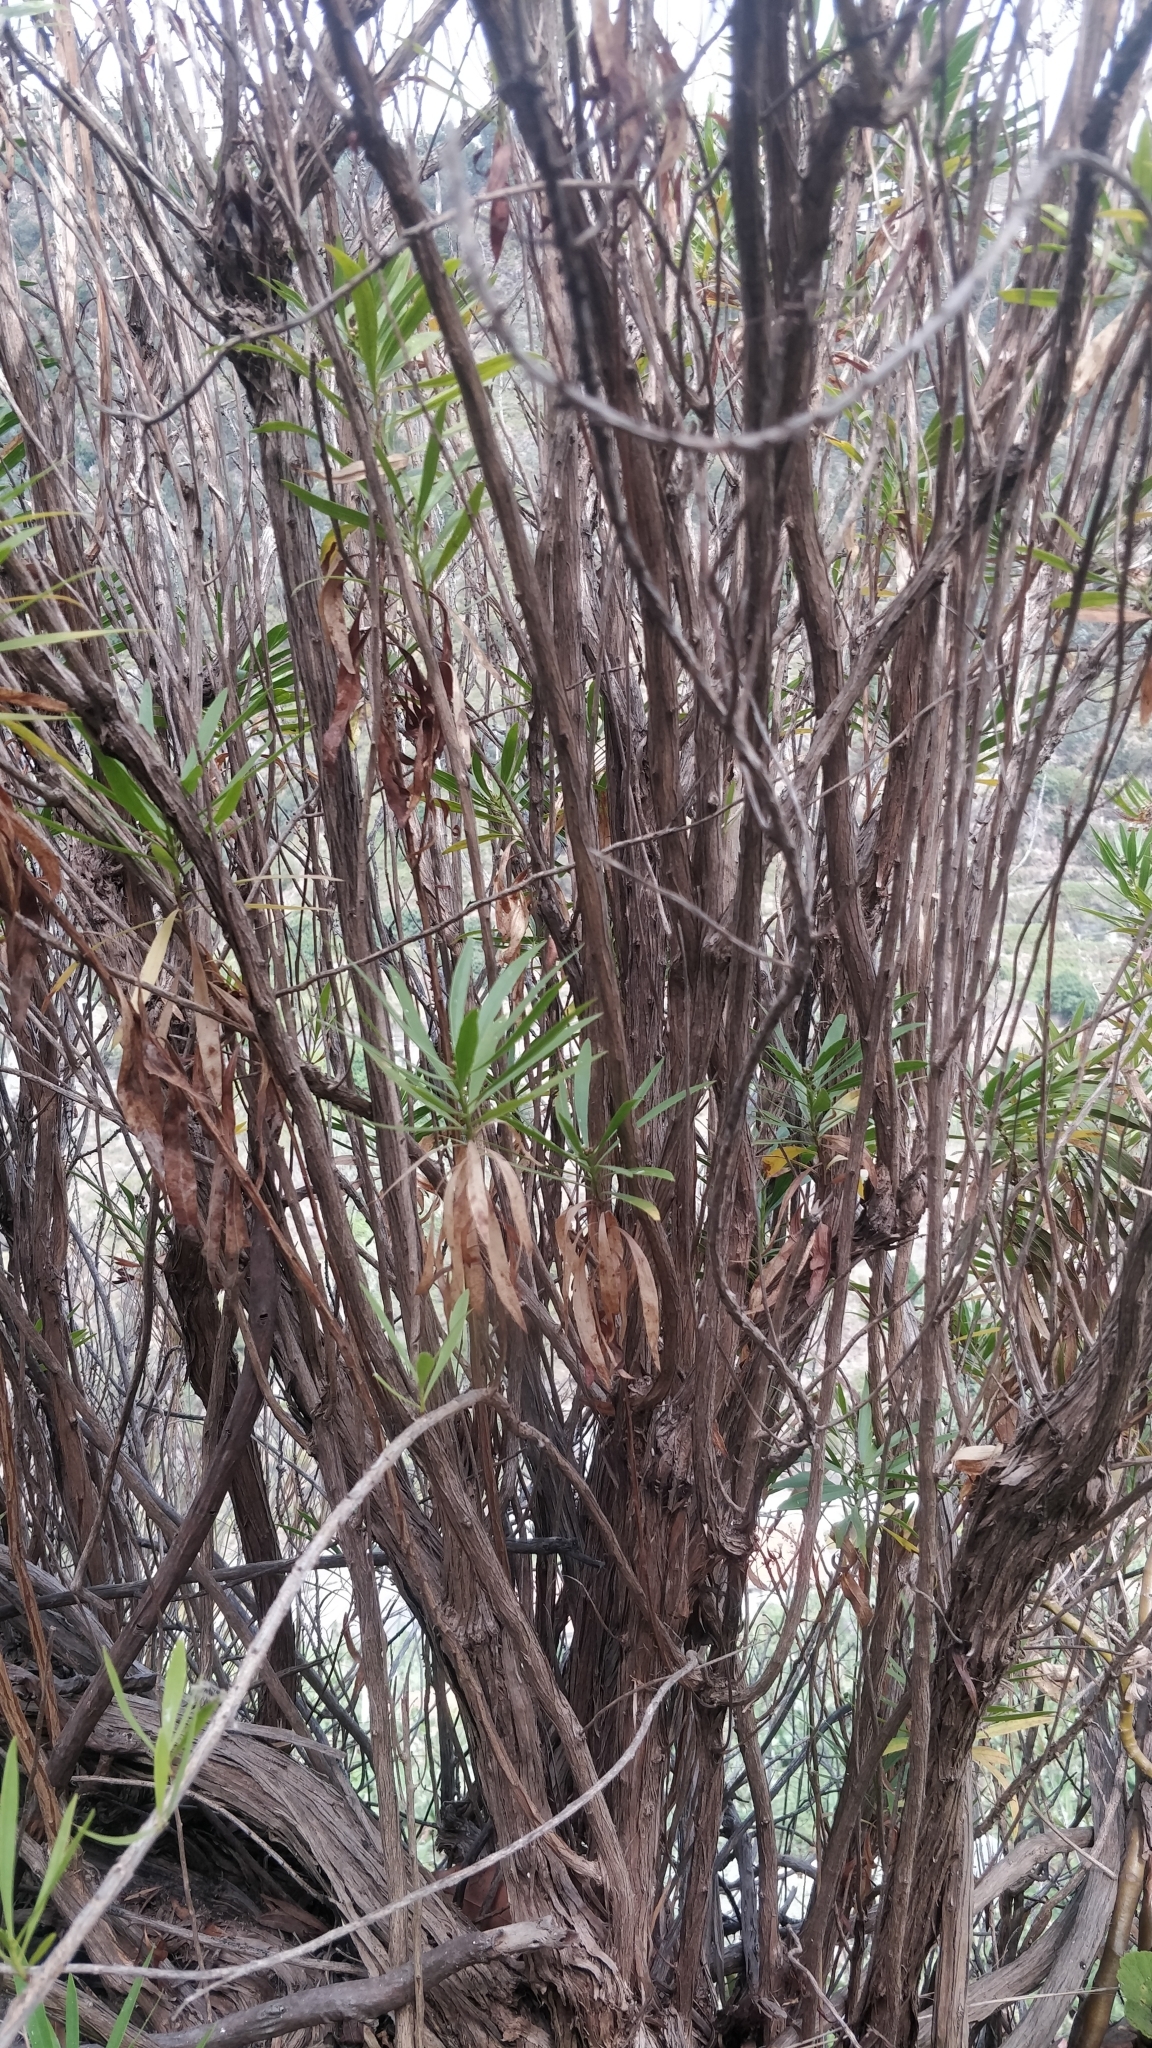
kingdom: Plantae
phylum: Tracheophyta
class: Magnoliopsida
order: Lamiales
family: Plantaginaceae
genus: Globularia
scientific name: Globularia salicina
